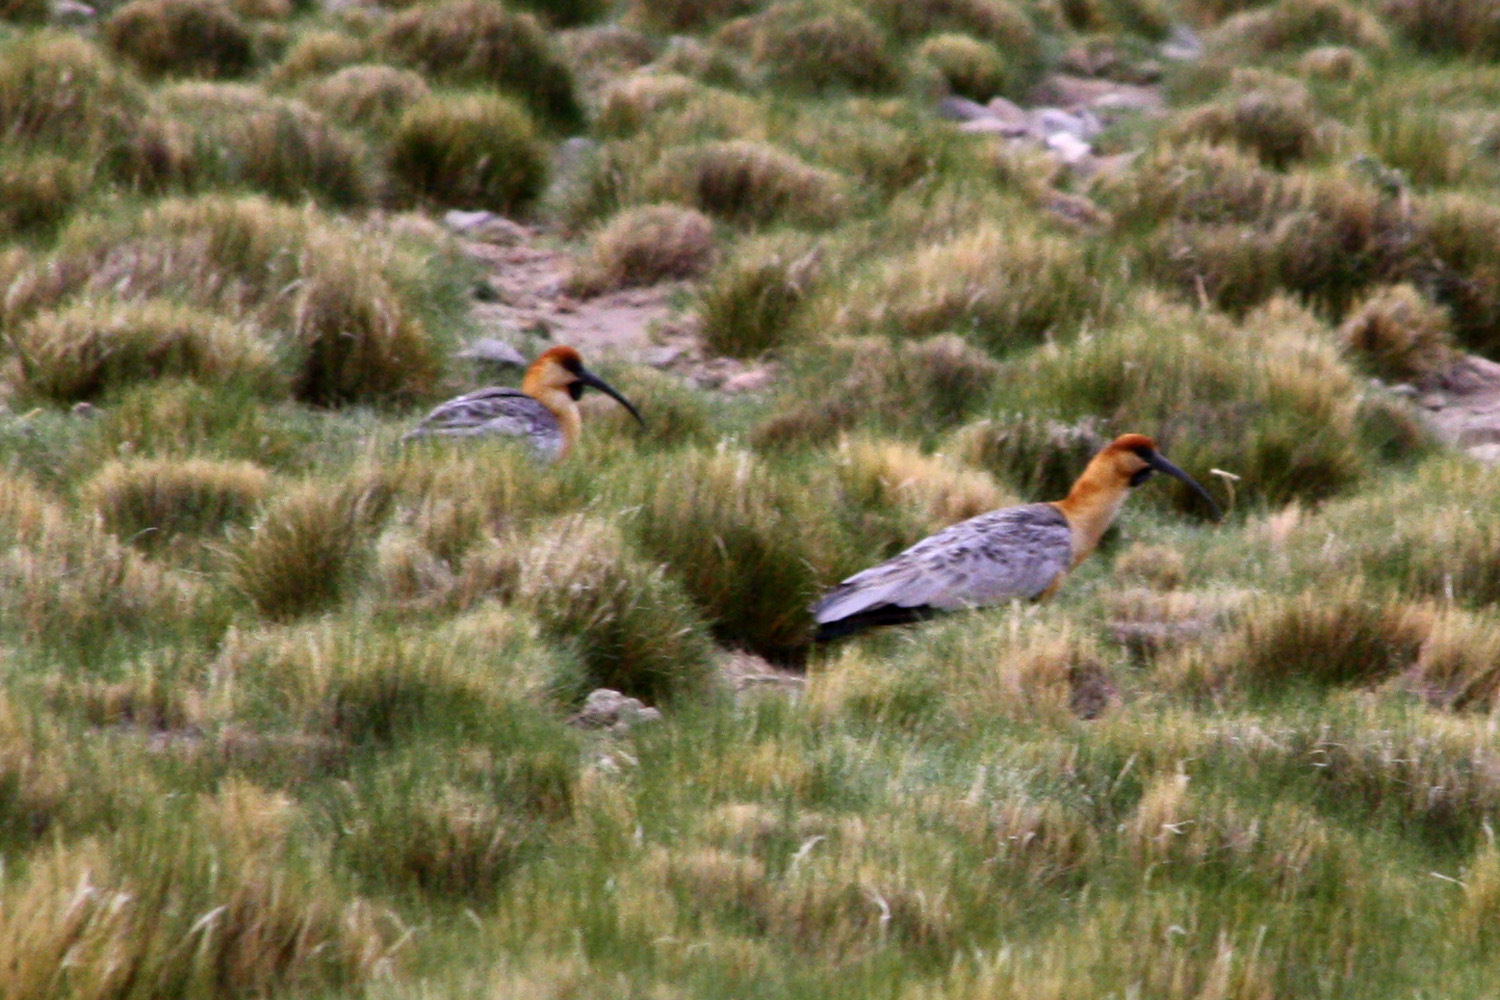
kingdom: Animalia
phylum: Chordata
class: Aves
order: Pelecaniformes
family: Threskiornithidae
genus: Theristicus
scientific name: Theristicus melanopis
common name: Black-faced ibis
